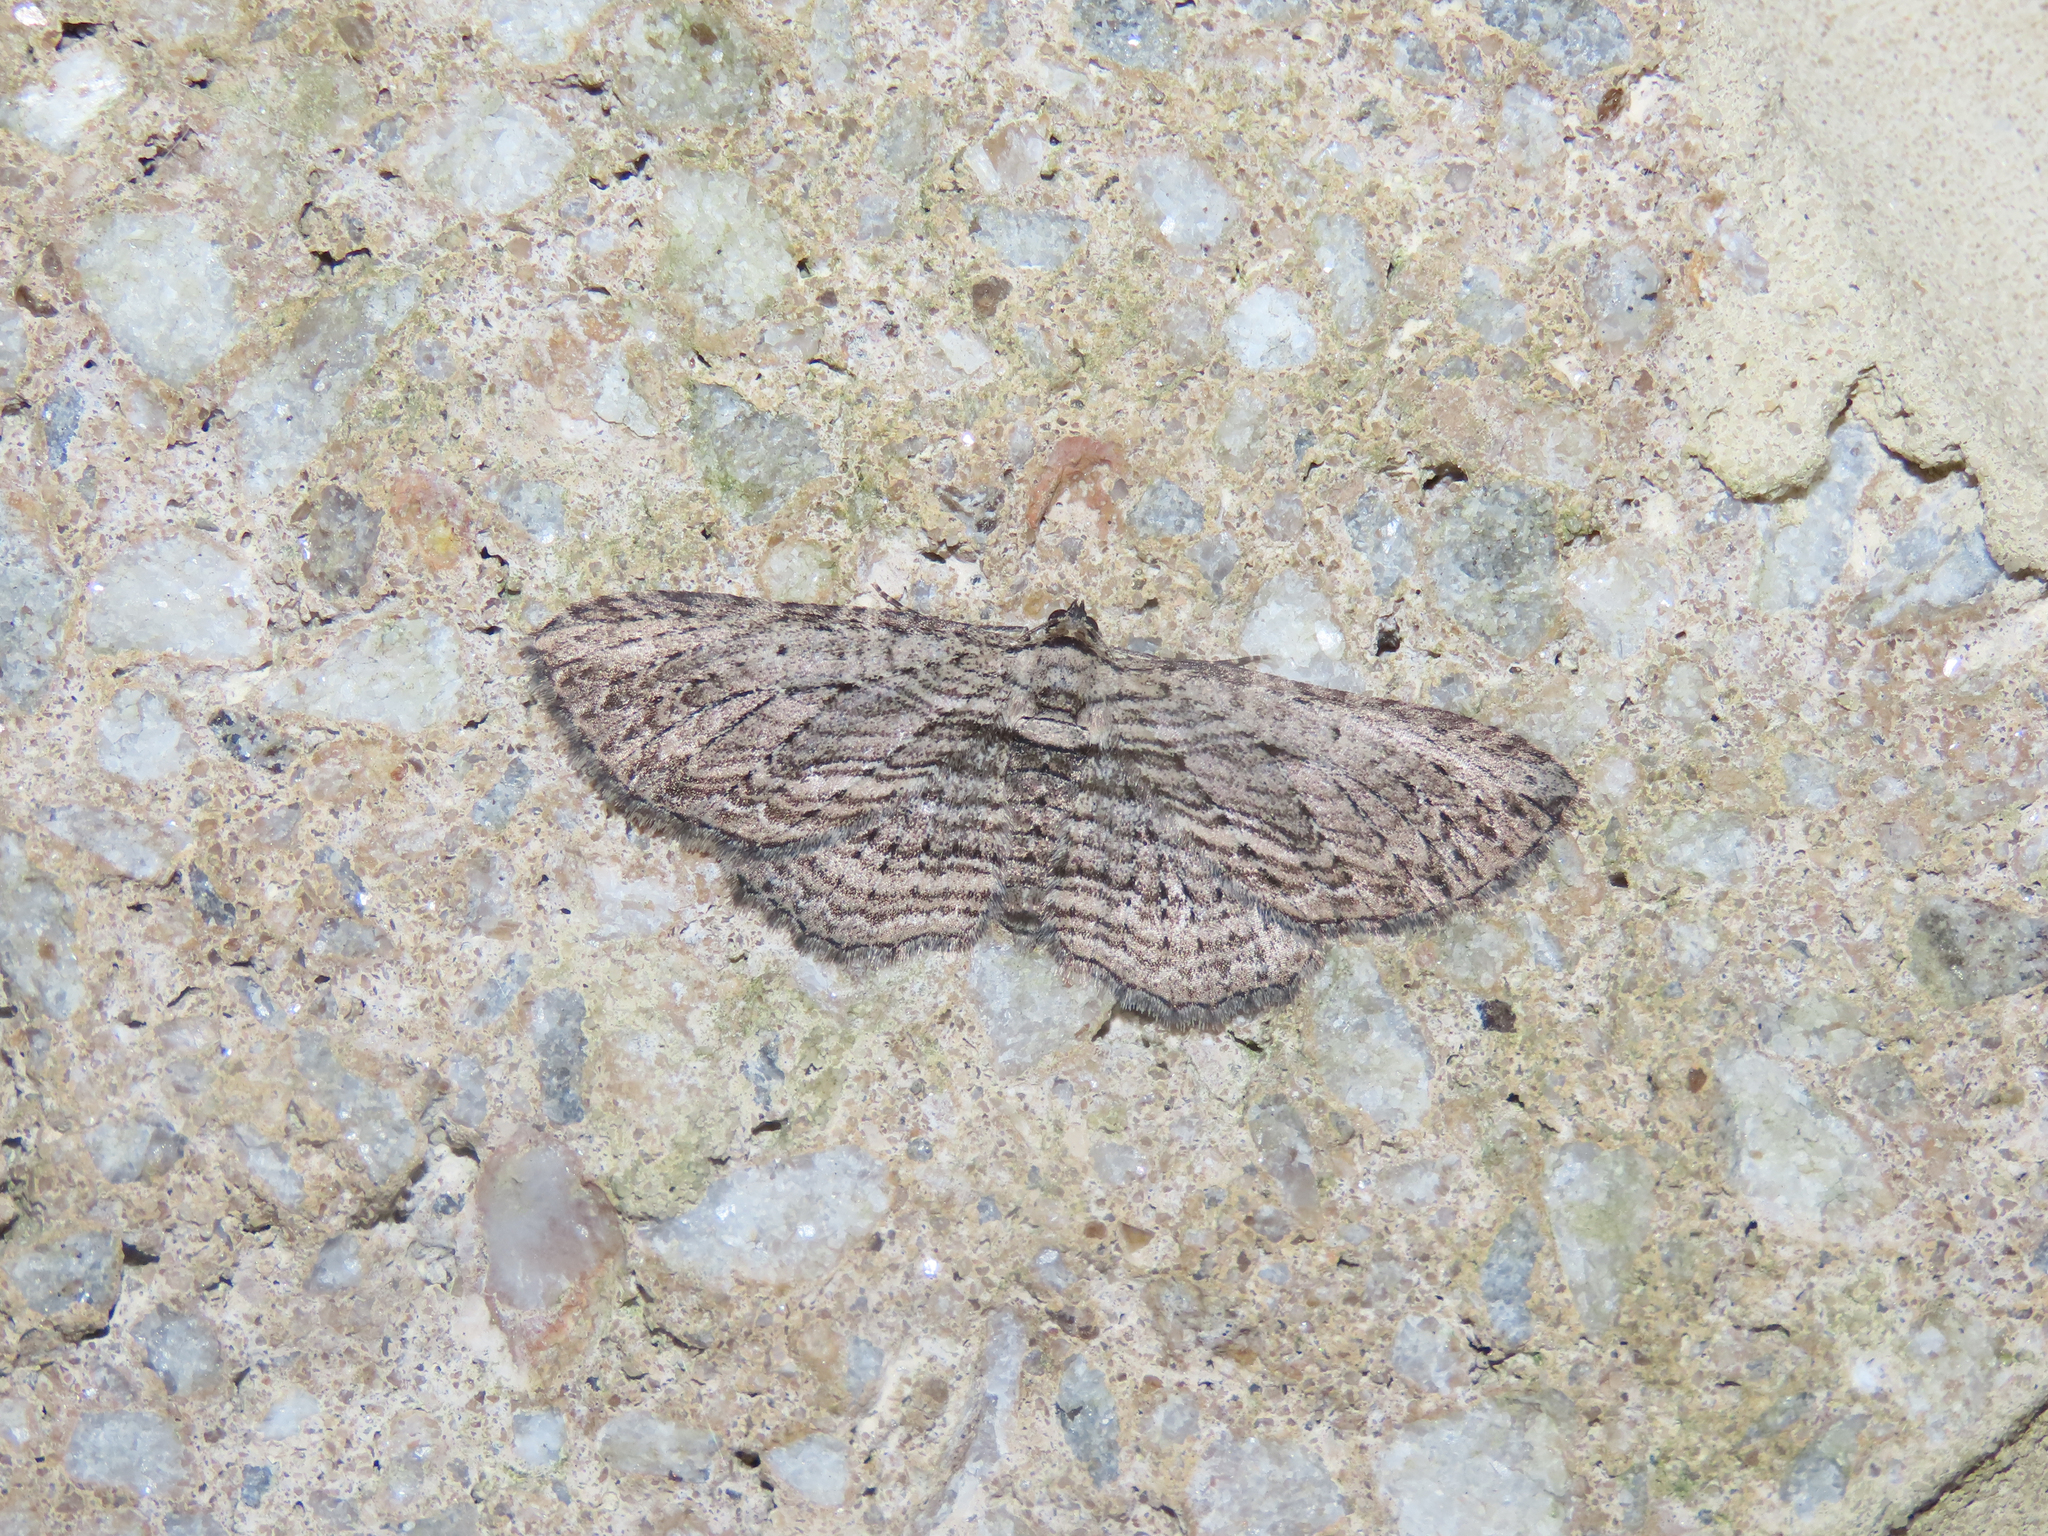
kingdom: Animalia
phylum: Arthropoda
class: Insecta
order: Lepidoptera
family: Geometridae
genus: Horisme
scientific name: Horisme intestinata
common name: Brown bark carpet
